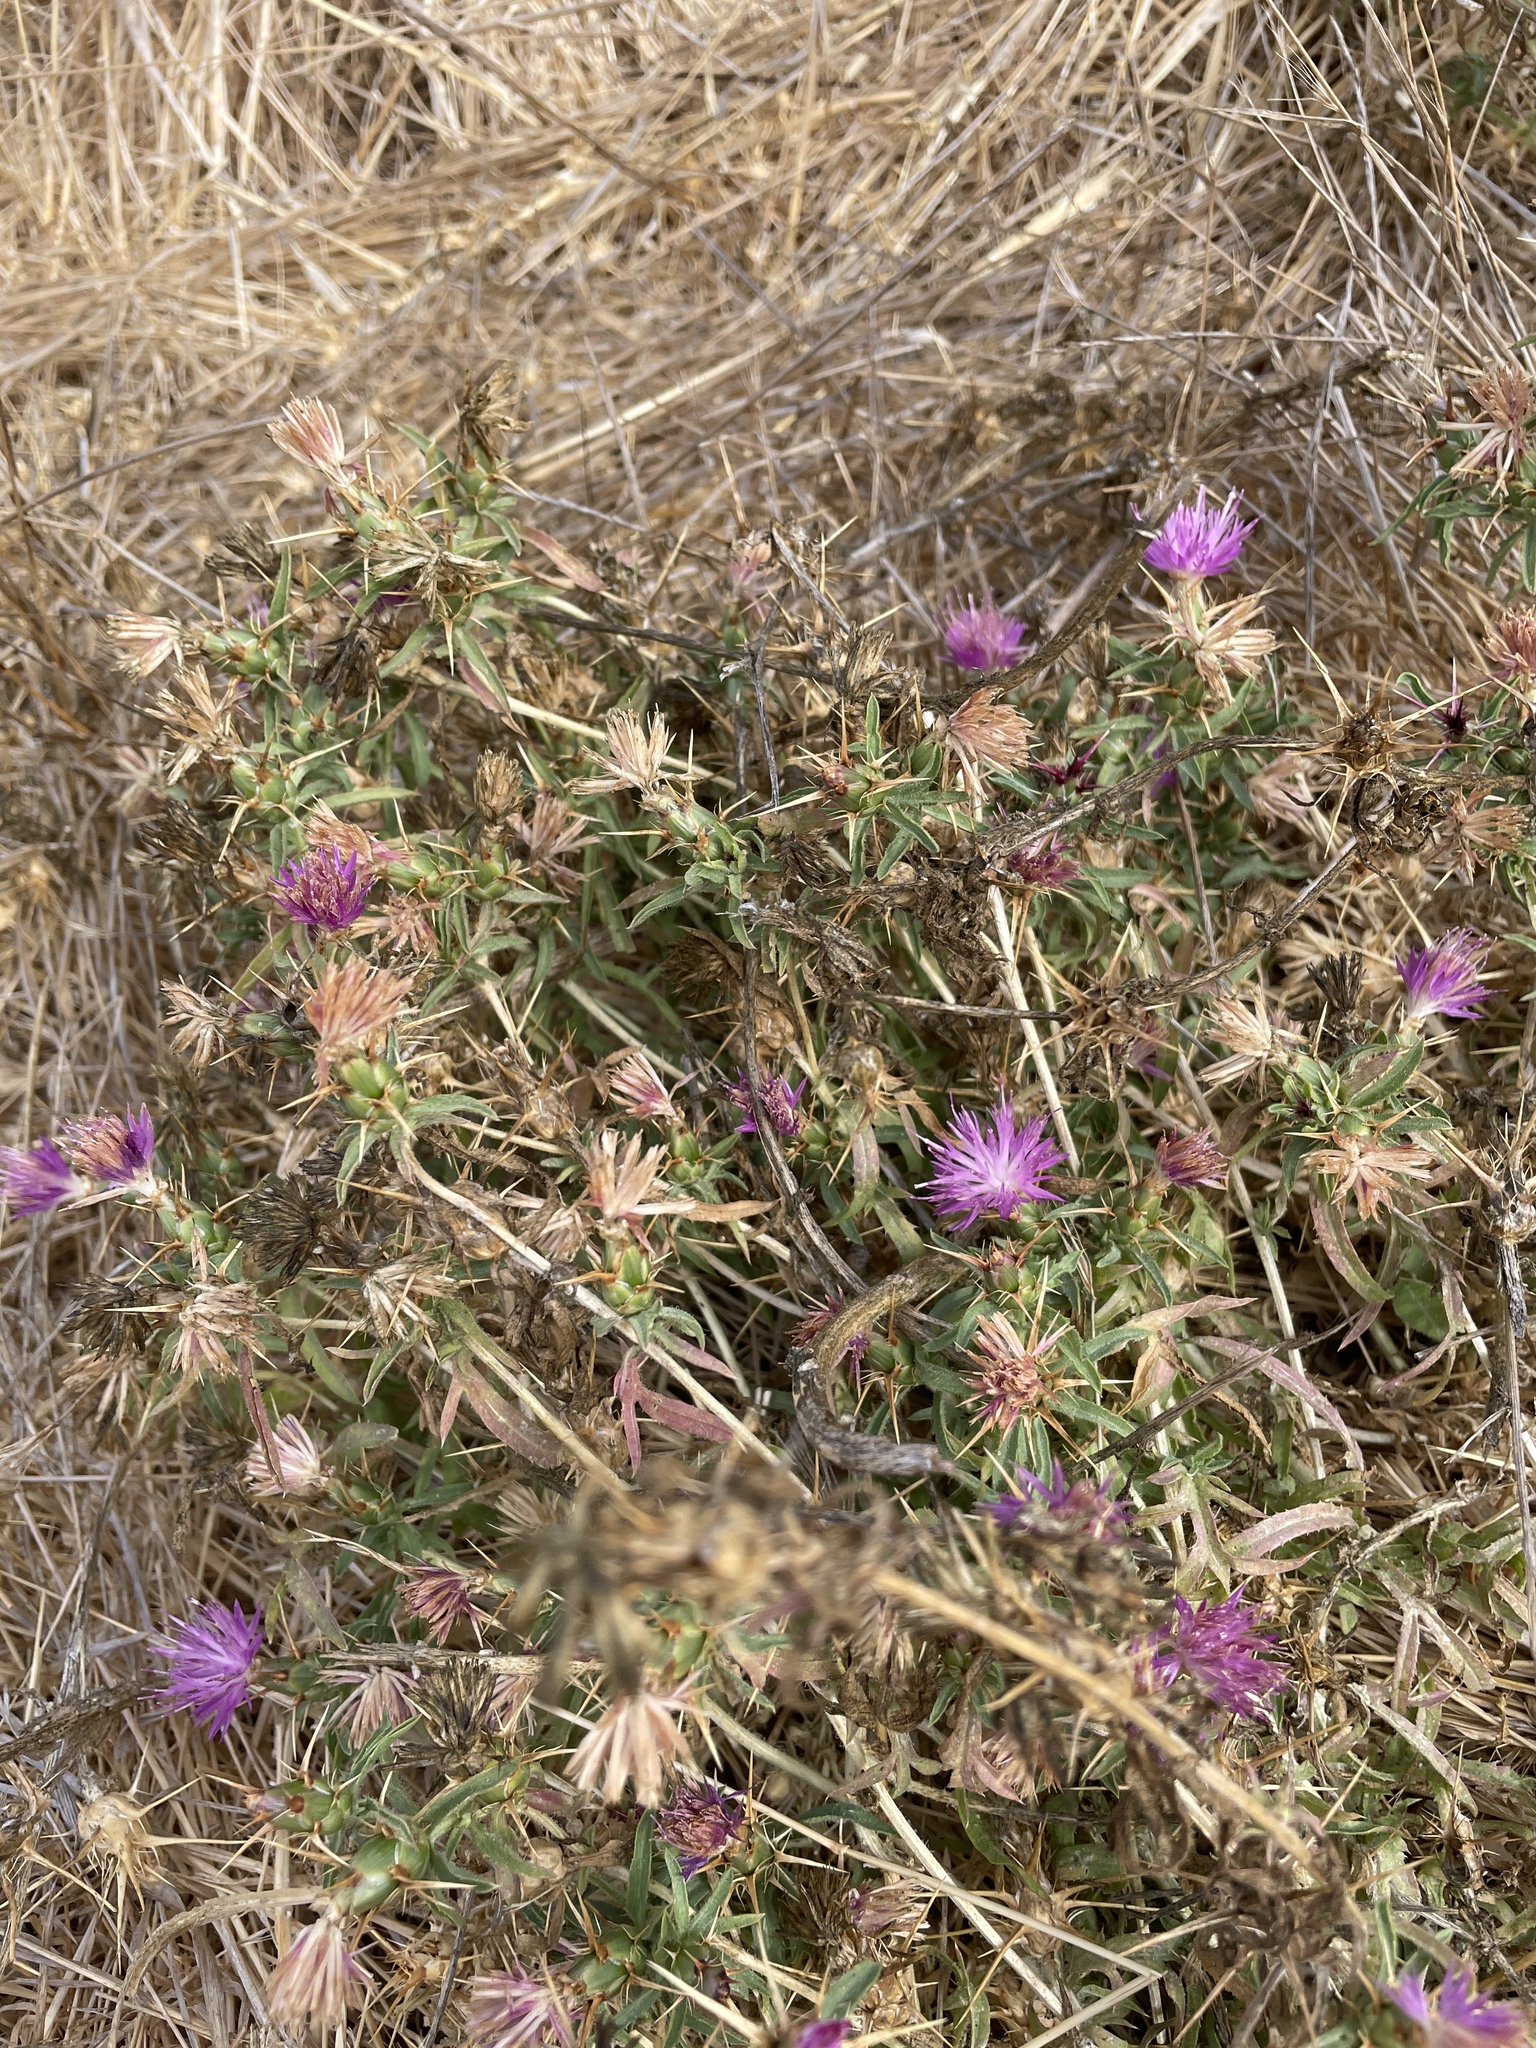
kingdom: Plantae
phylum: Tracheophyta
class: Magnoliopsida
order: Asterales
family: Asteraceae
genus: Centaurea
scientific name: Centaurea calcitrapa
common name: Red star-thistle
